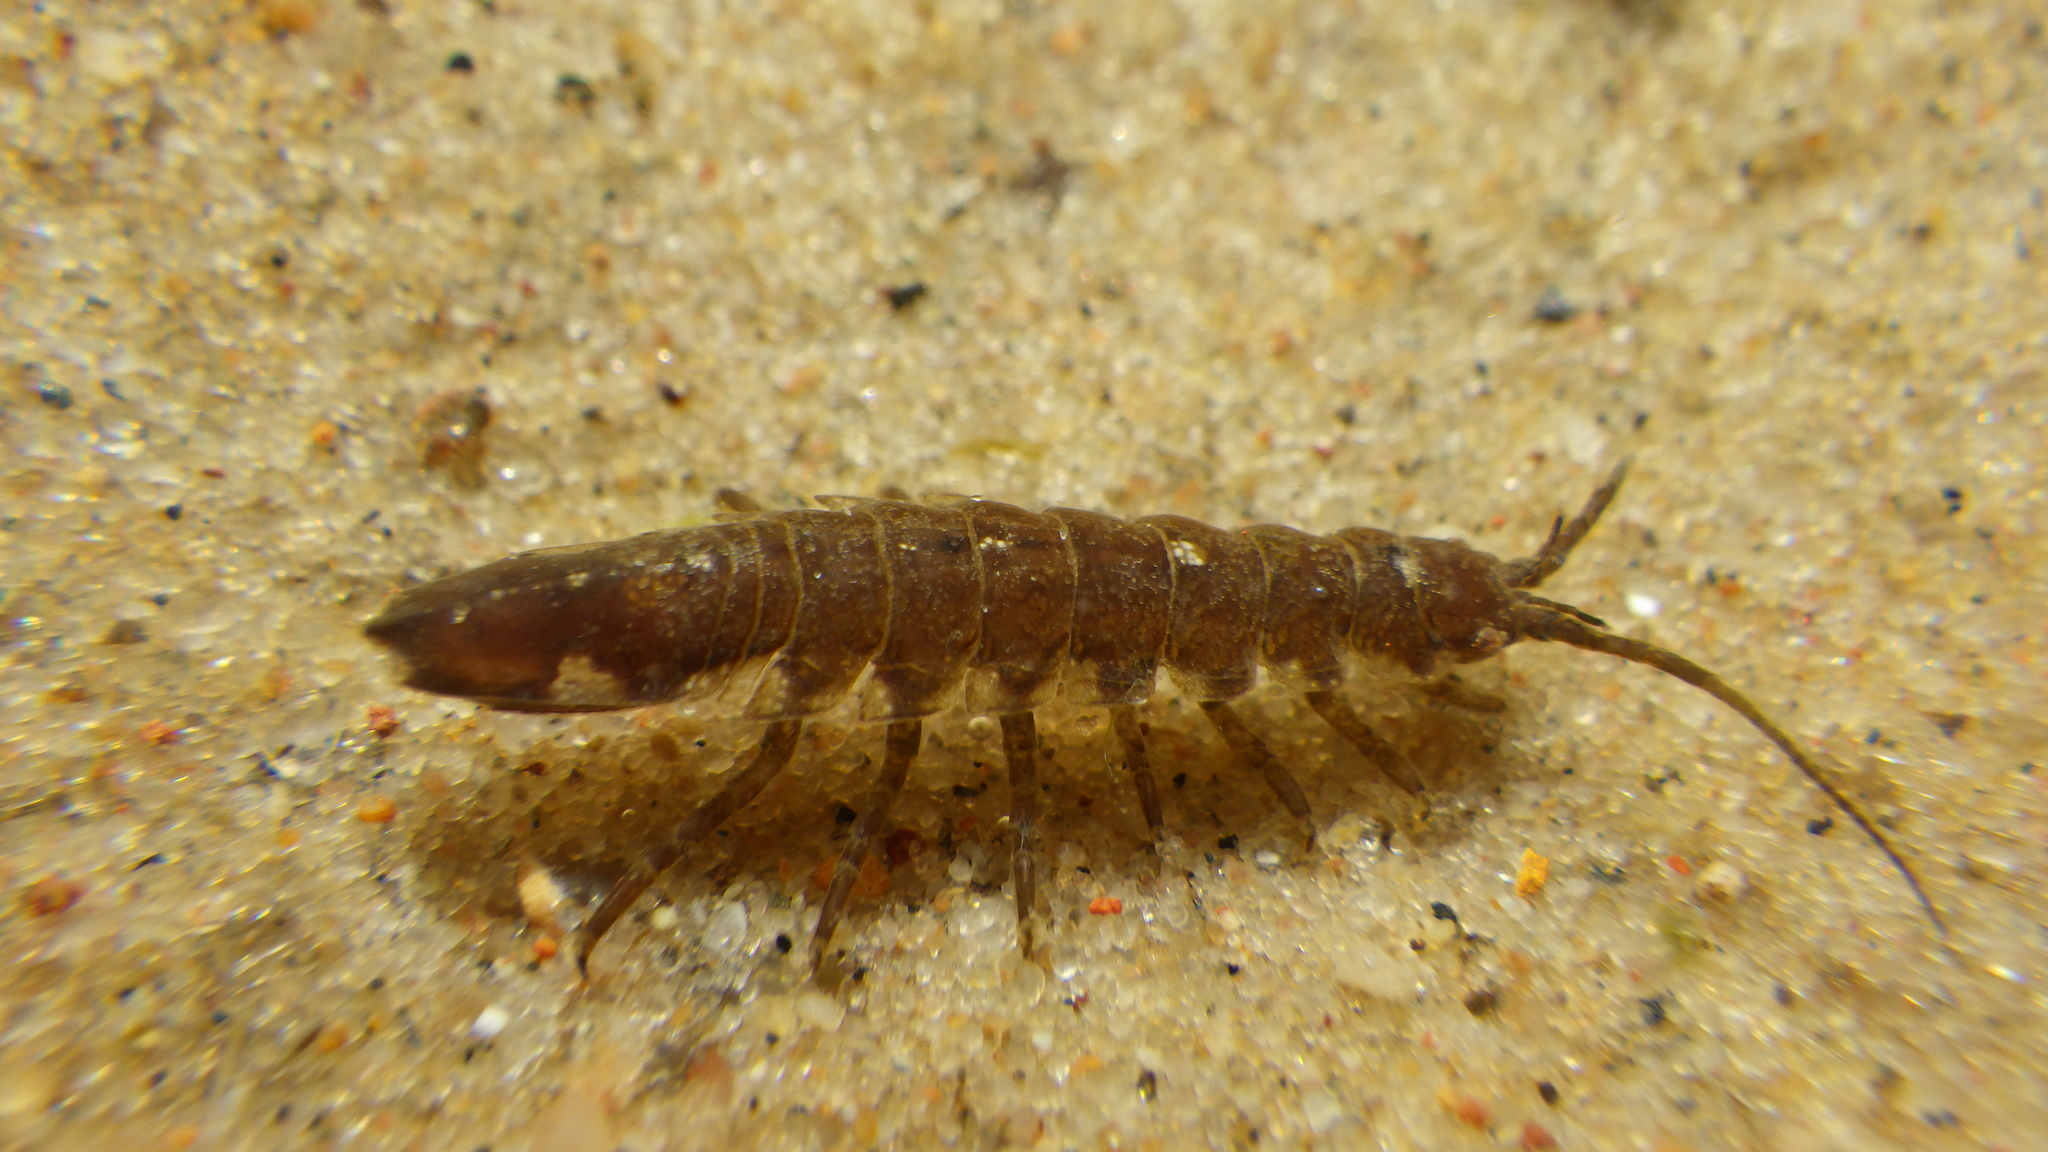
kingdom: Animalia
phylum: Arthropoda
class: Malacostraca
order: Isopoda
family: Idoteidae
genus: Idotea
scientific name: Idotea balthica
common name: Baltic isopod
